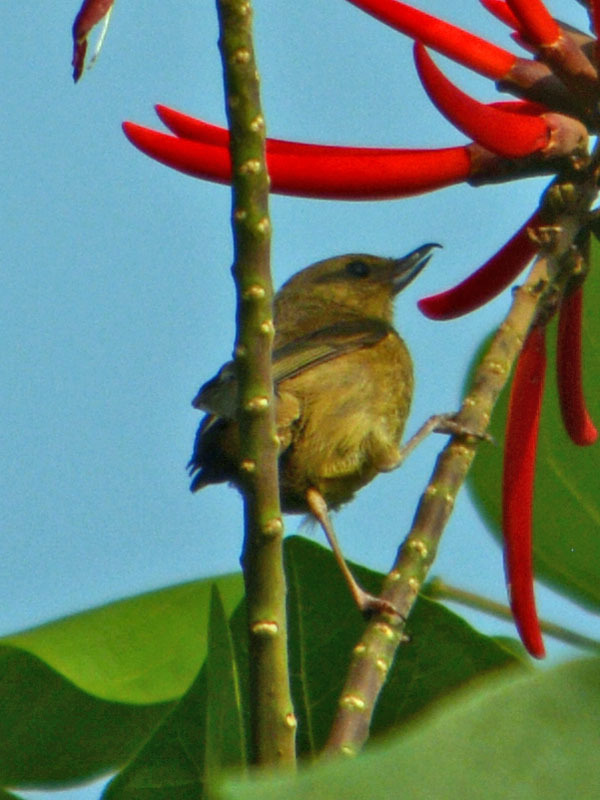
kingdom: Animalia
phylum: Chordata
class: Aves
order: Passeriformes
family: Thraupidae
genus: Diglossa
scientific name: Diglossa baritula
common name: Cinnamon-bellied flowerpiercer
